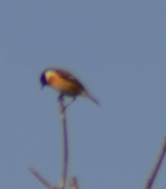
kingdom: Animalia
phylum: Chordata
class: Aves
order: Passeriformes
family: Muscicapidae
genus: Saxicola
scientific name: Saxicola rubicola
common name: European stonechat
